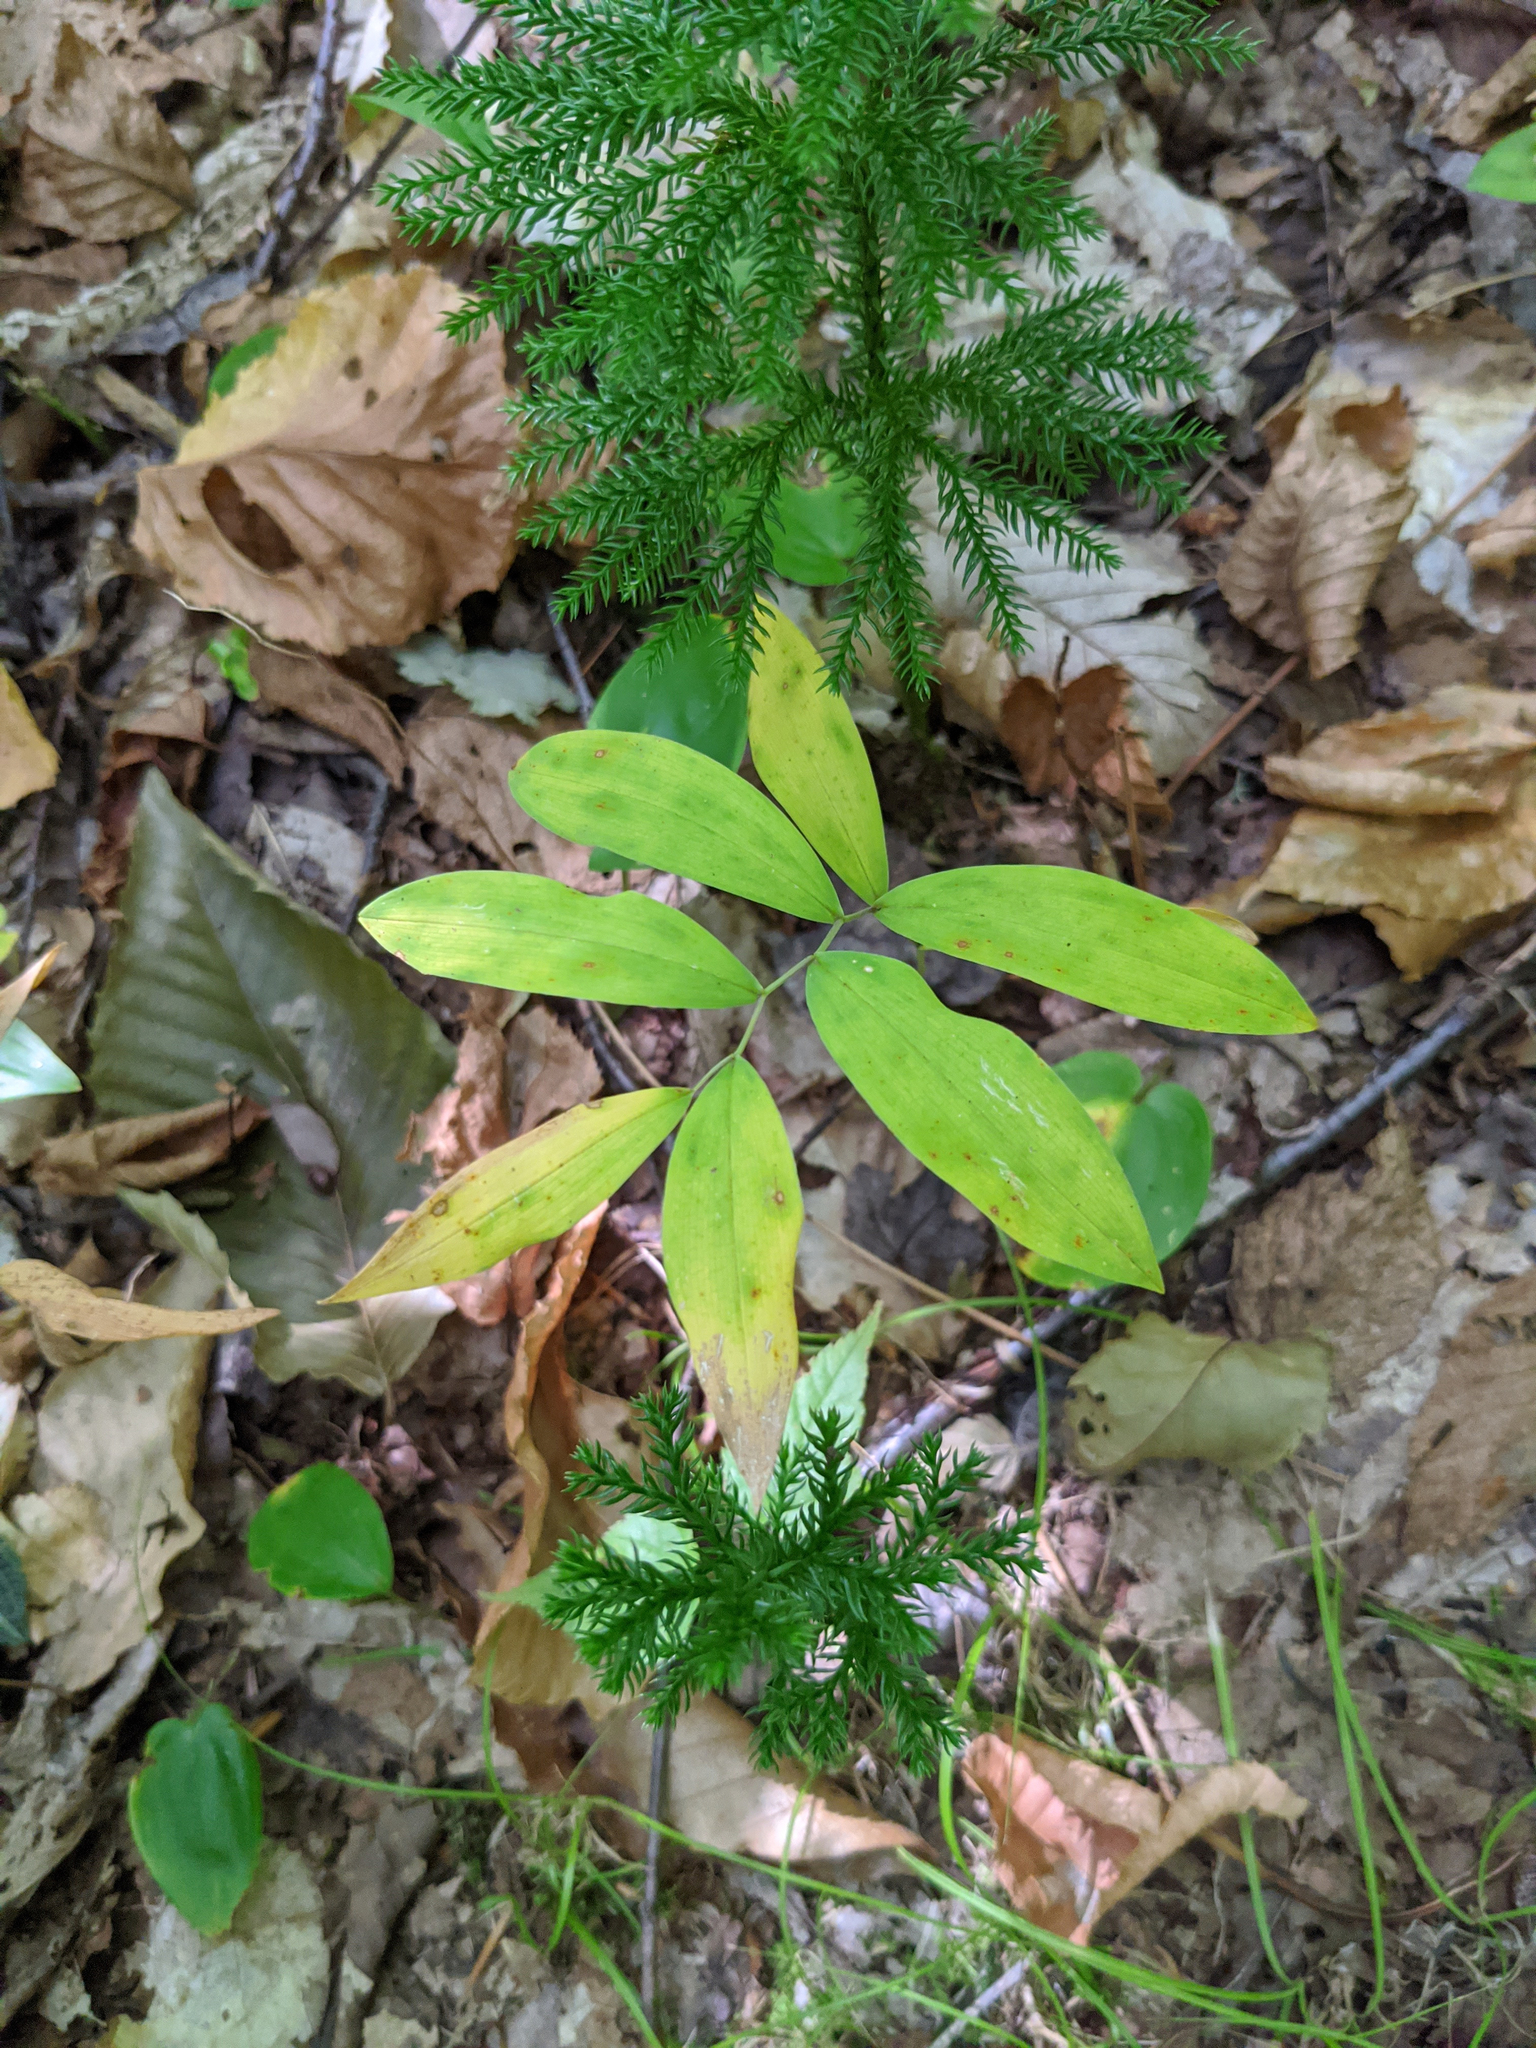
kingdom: Plantae
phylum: Tracheophyta
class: Liliopsida
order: Liliales
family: Colchicaceae
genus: Uvularia
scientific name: Uvularia sessilifolia
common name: Straw-lily
